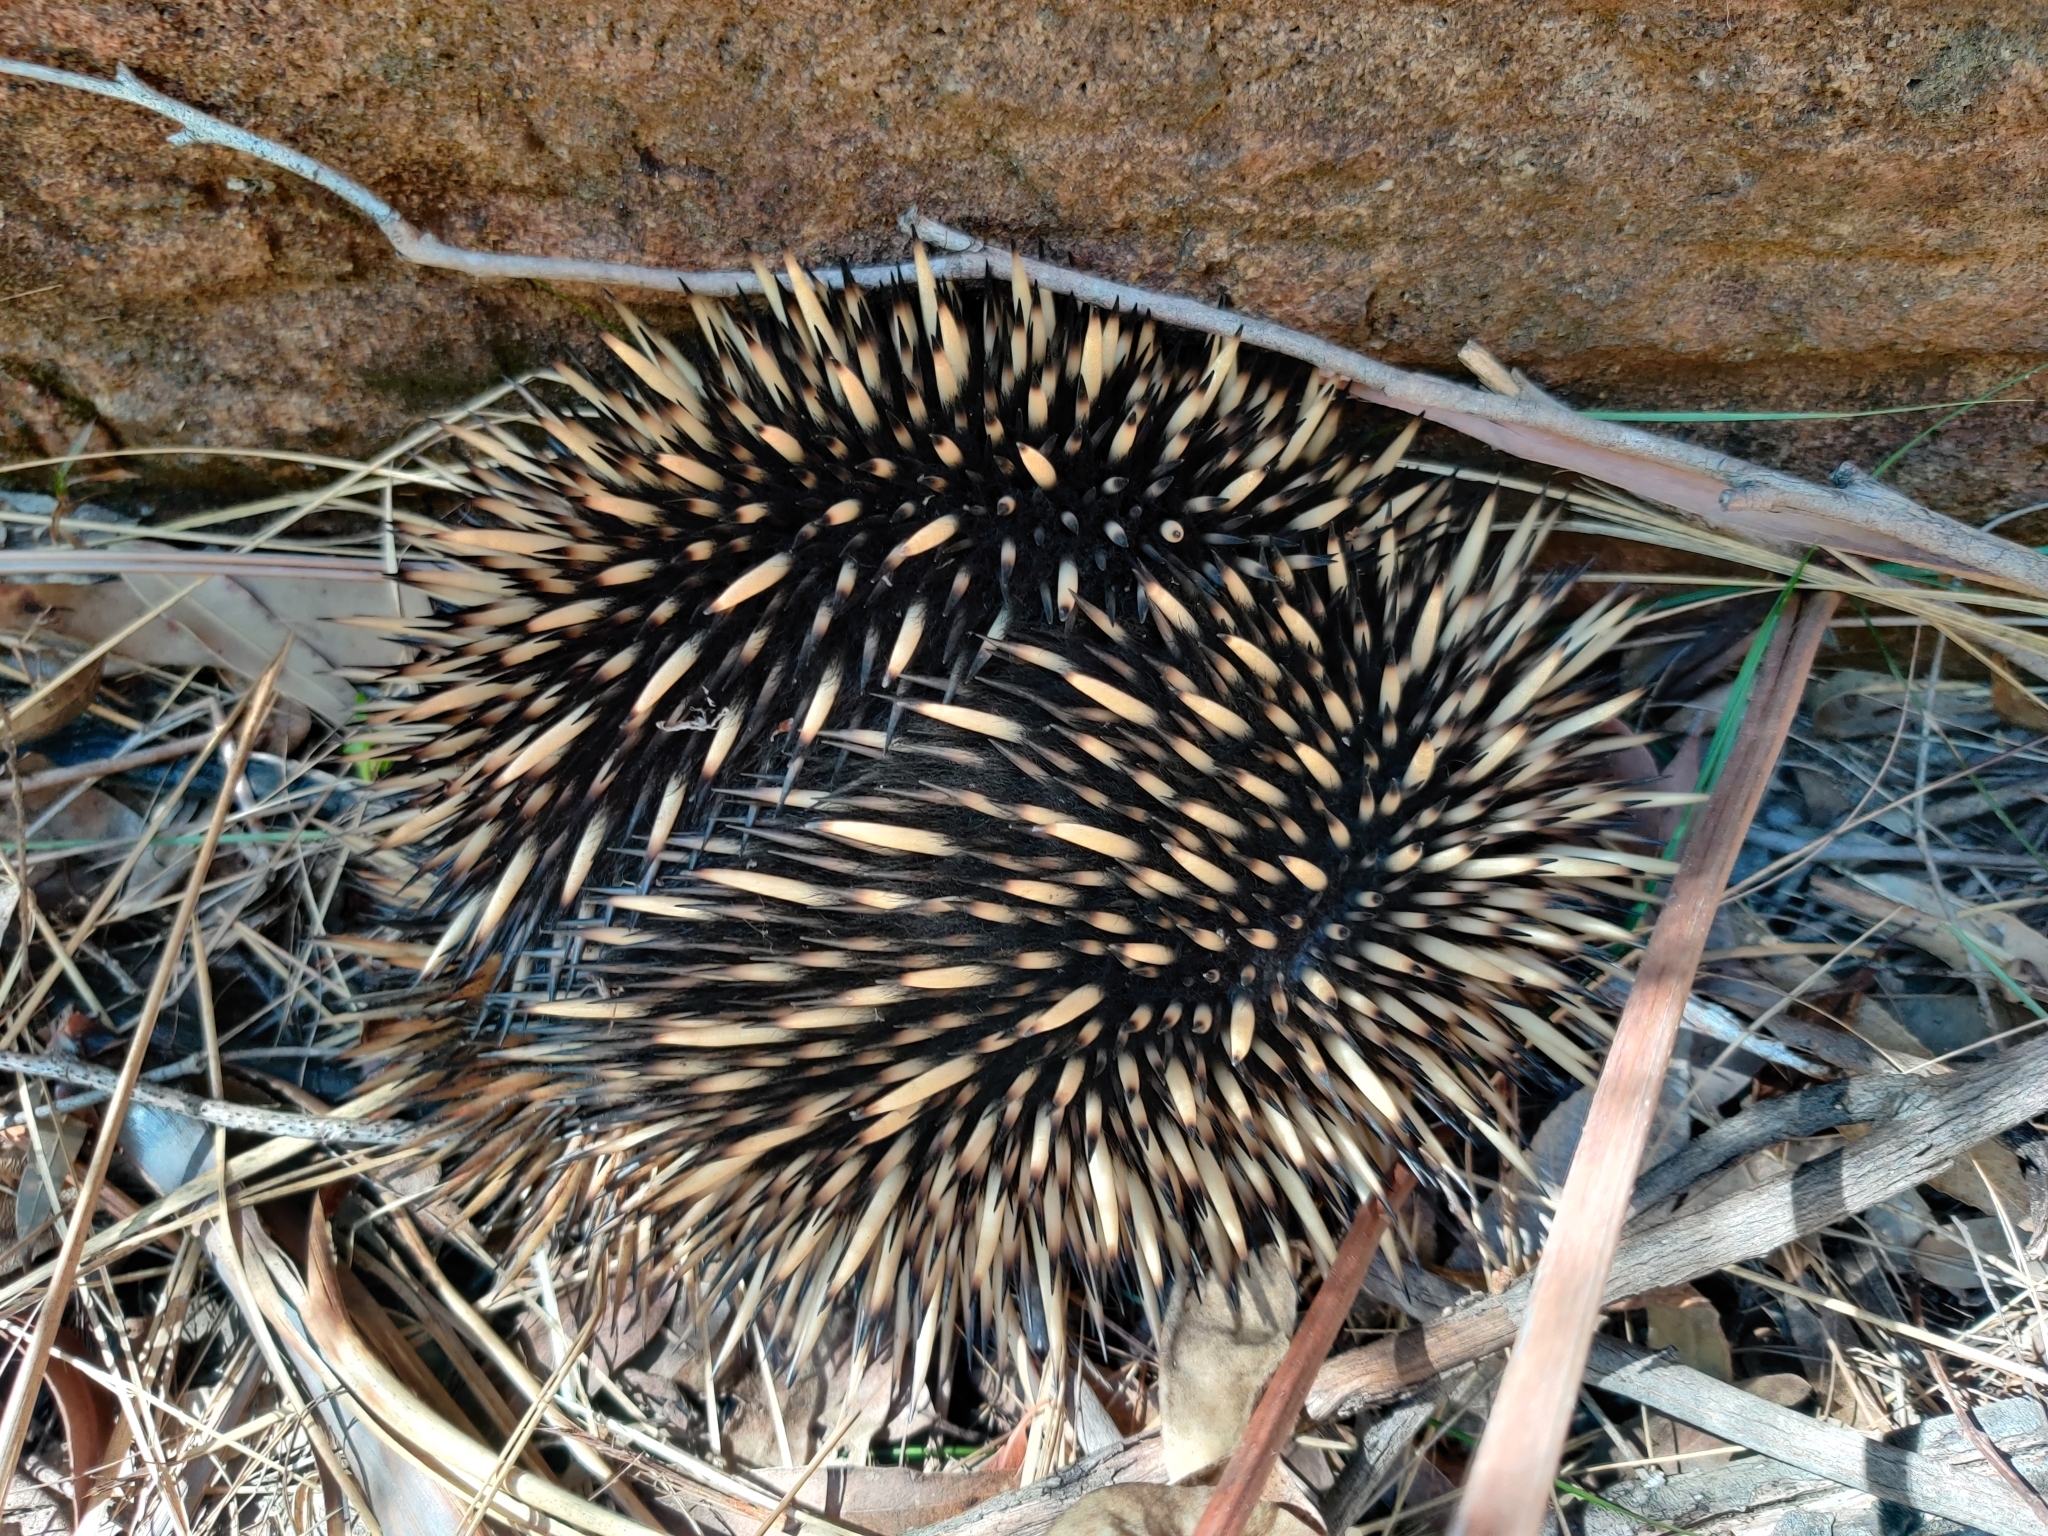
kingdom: Animalia
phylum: Chordata
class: Mammalia
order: Monotremata
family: Tachyglossidae
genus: Tachyglossus
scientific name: Tachyglossus aculeatus
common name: Short-beaked echidna
